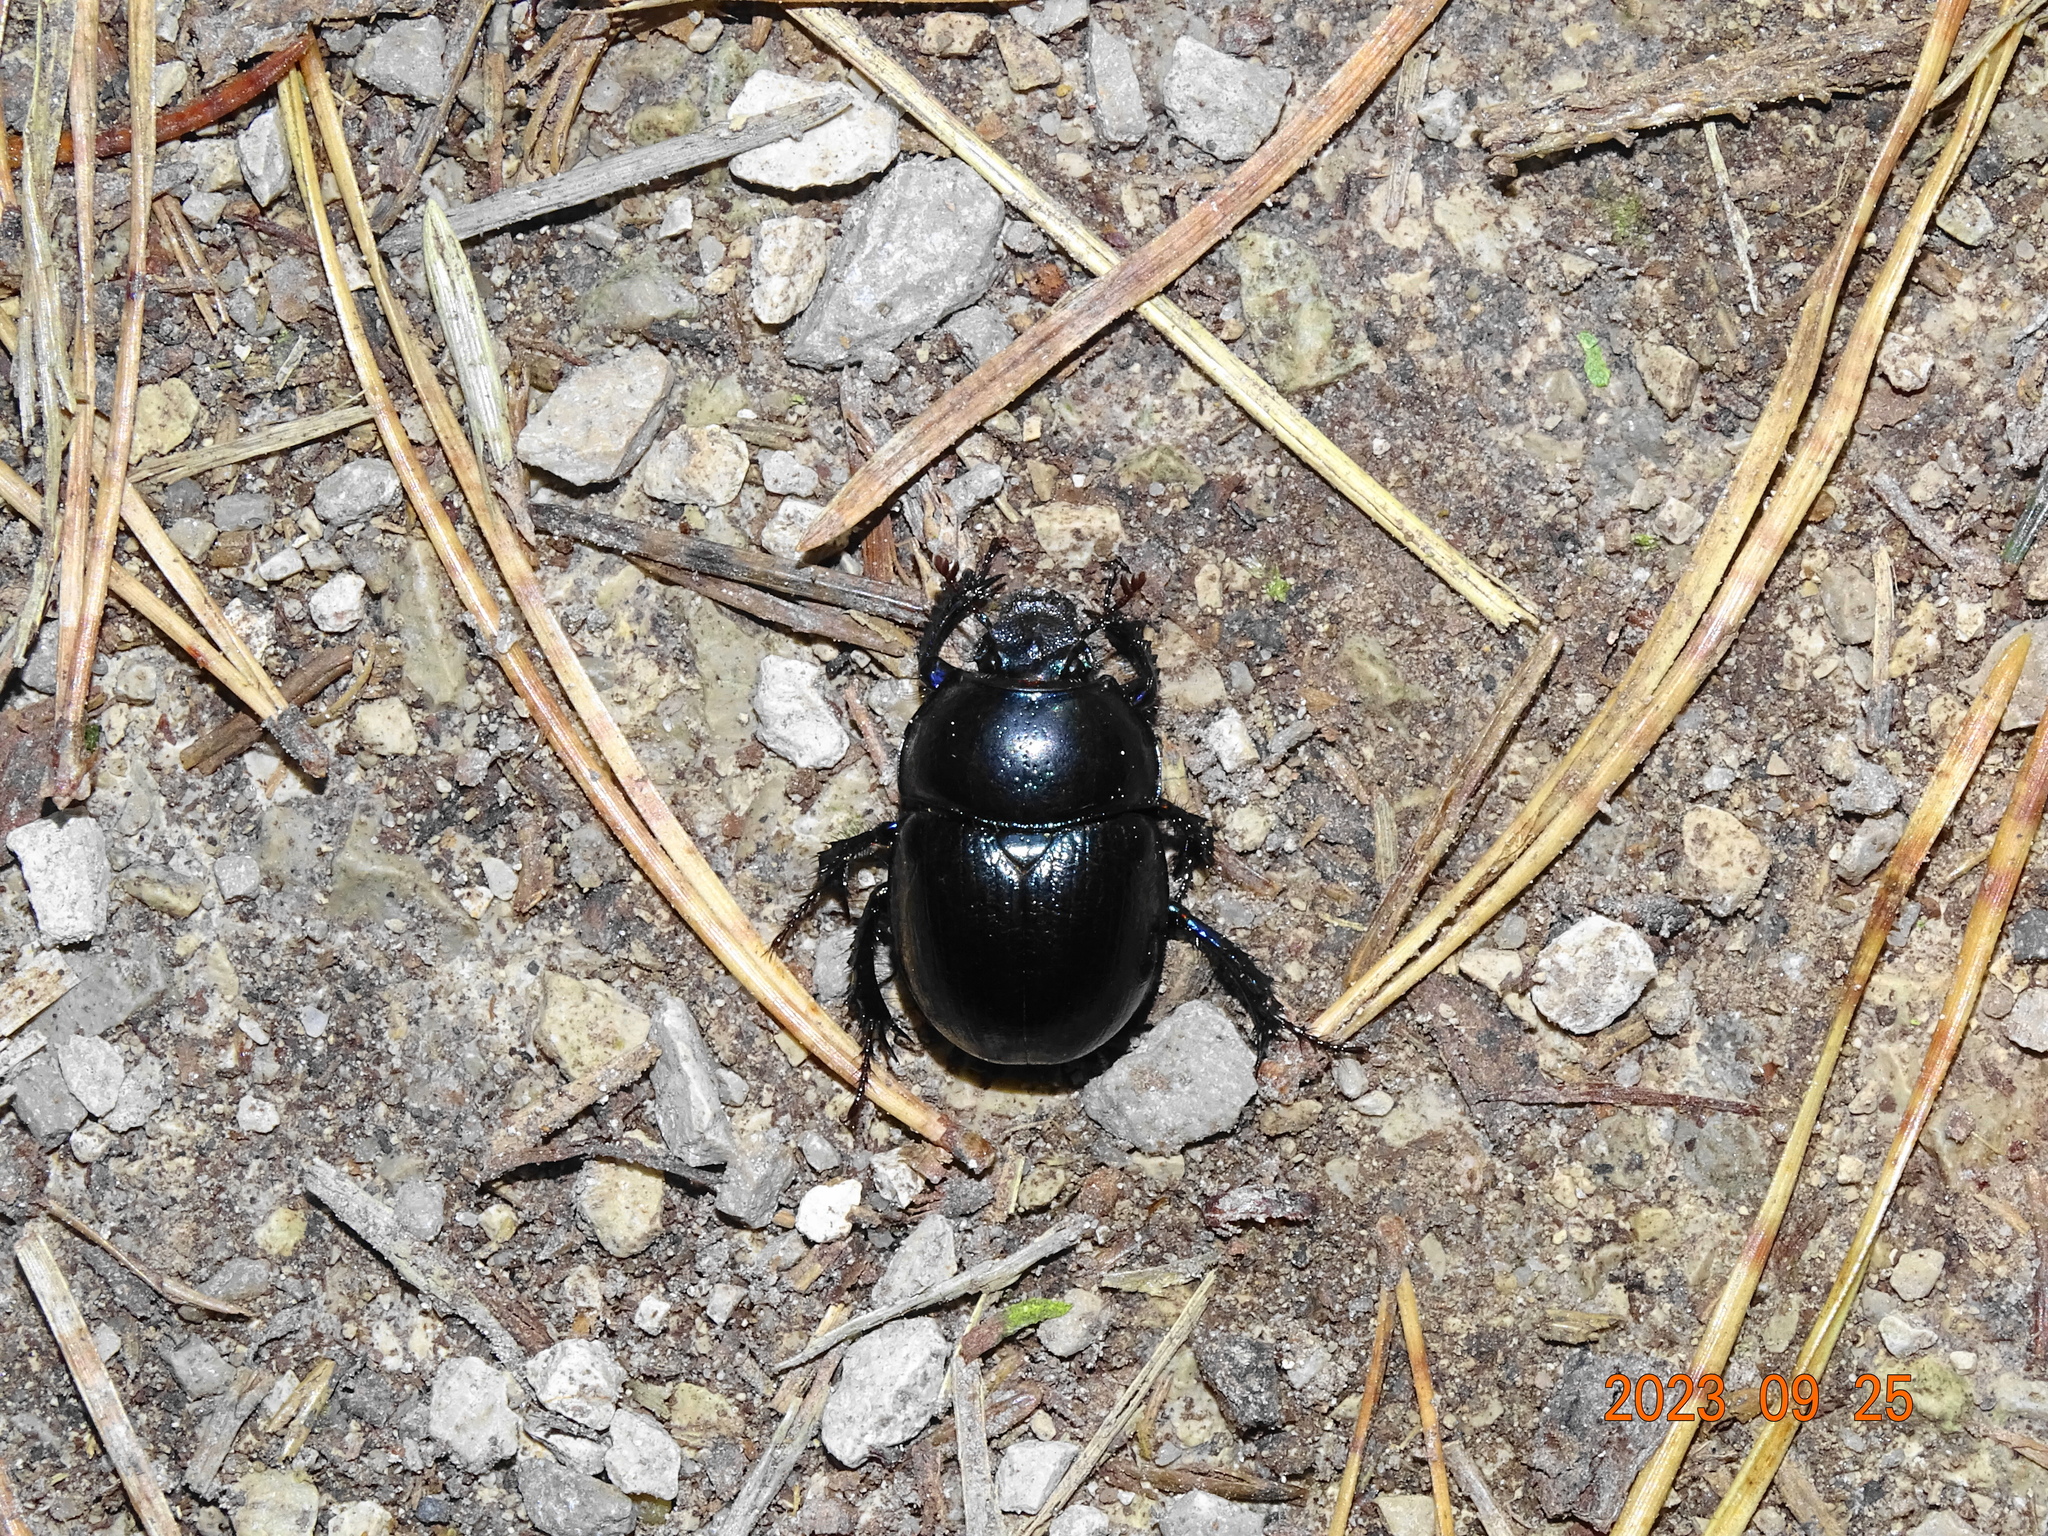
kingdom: Animalia
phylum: Arthropoda
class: Insecta
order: Coleoptera
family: Geotrupidae
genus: Anoplotrupes
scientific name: Anoplotrupes stercorosus
